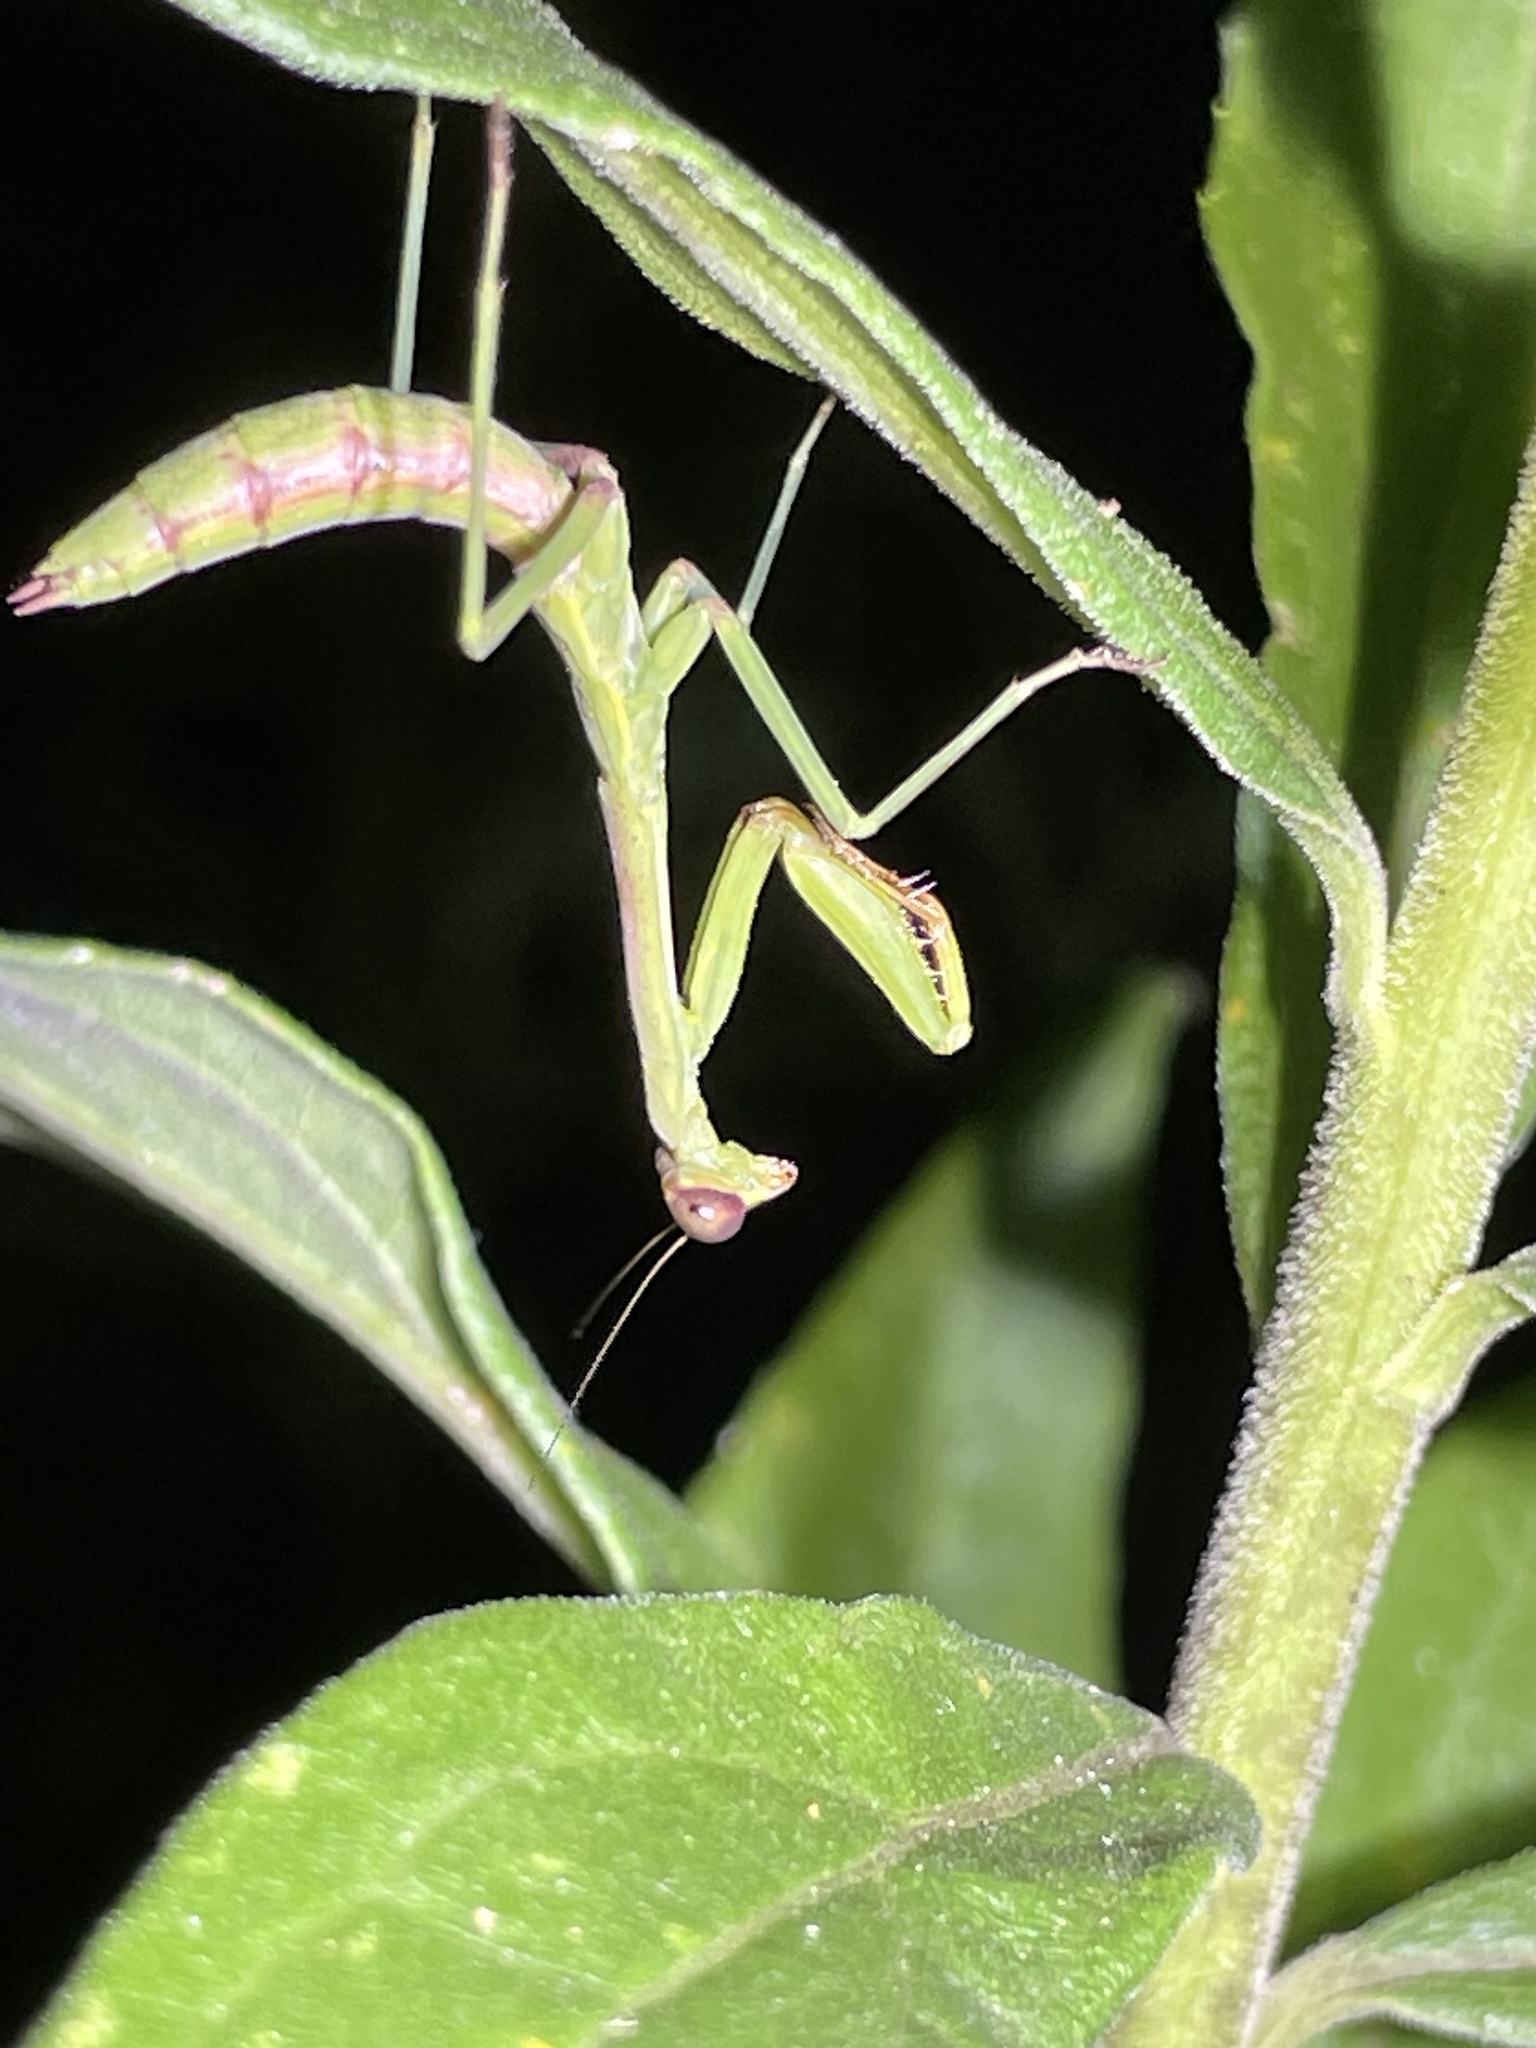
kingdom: Animalia
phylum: Arthropoda
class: Insecta
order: Mantodea
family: Mantidae
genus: Stagmomantis
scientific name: Stagmomantis carolina
